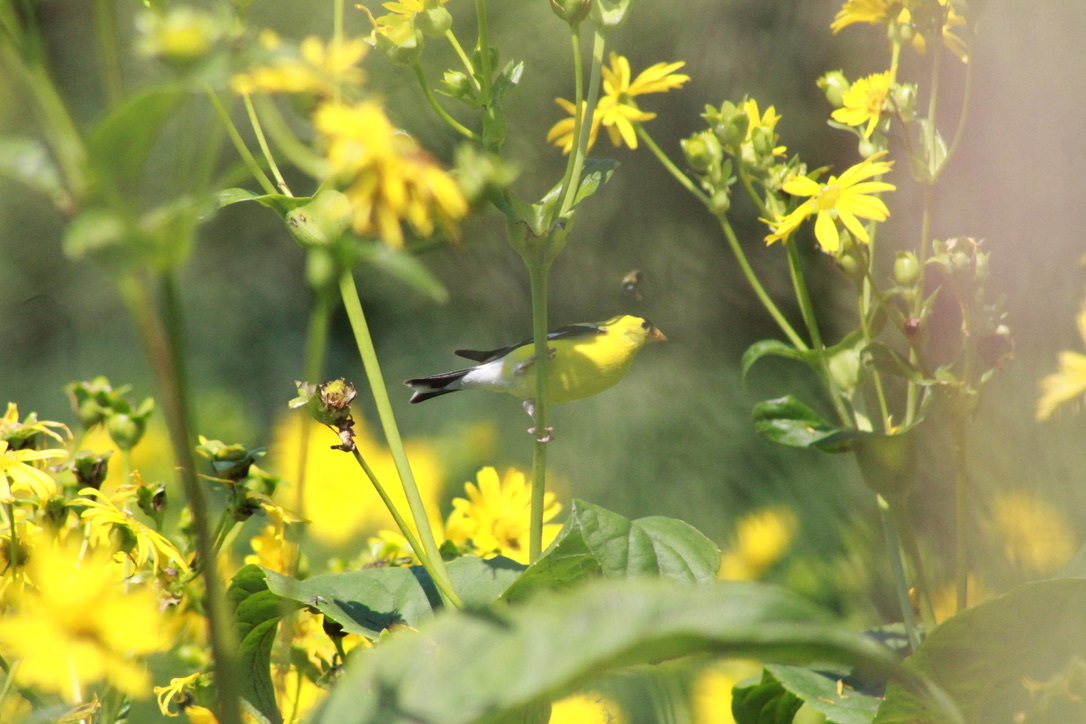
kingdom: Animalia
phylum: Chordata
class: Aves
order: Passeriformes
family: Fringillidae
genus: Spinus
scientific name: Spinus tristis
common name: American goldfinch
